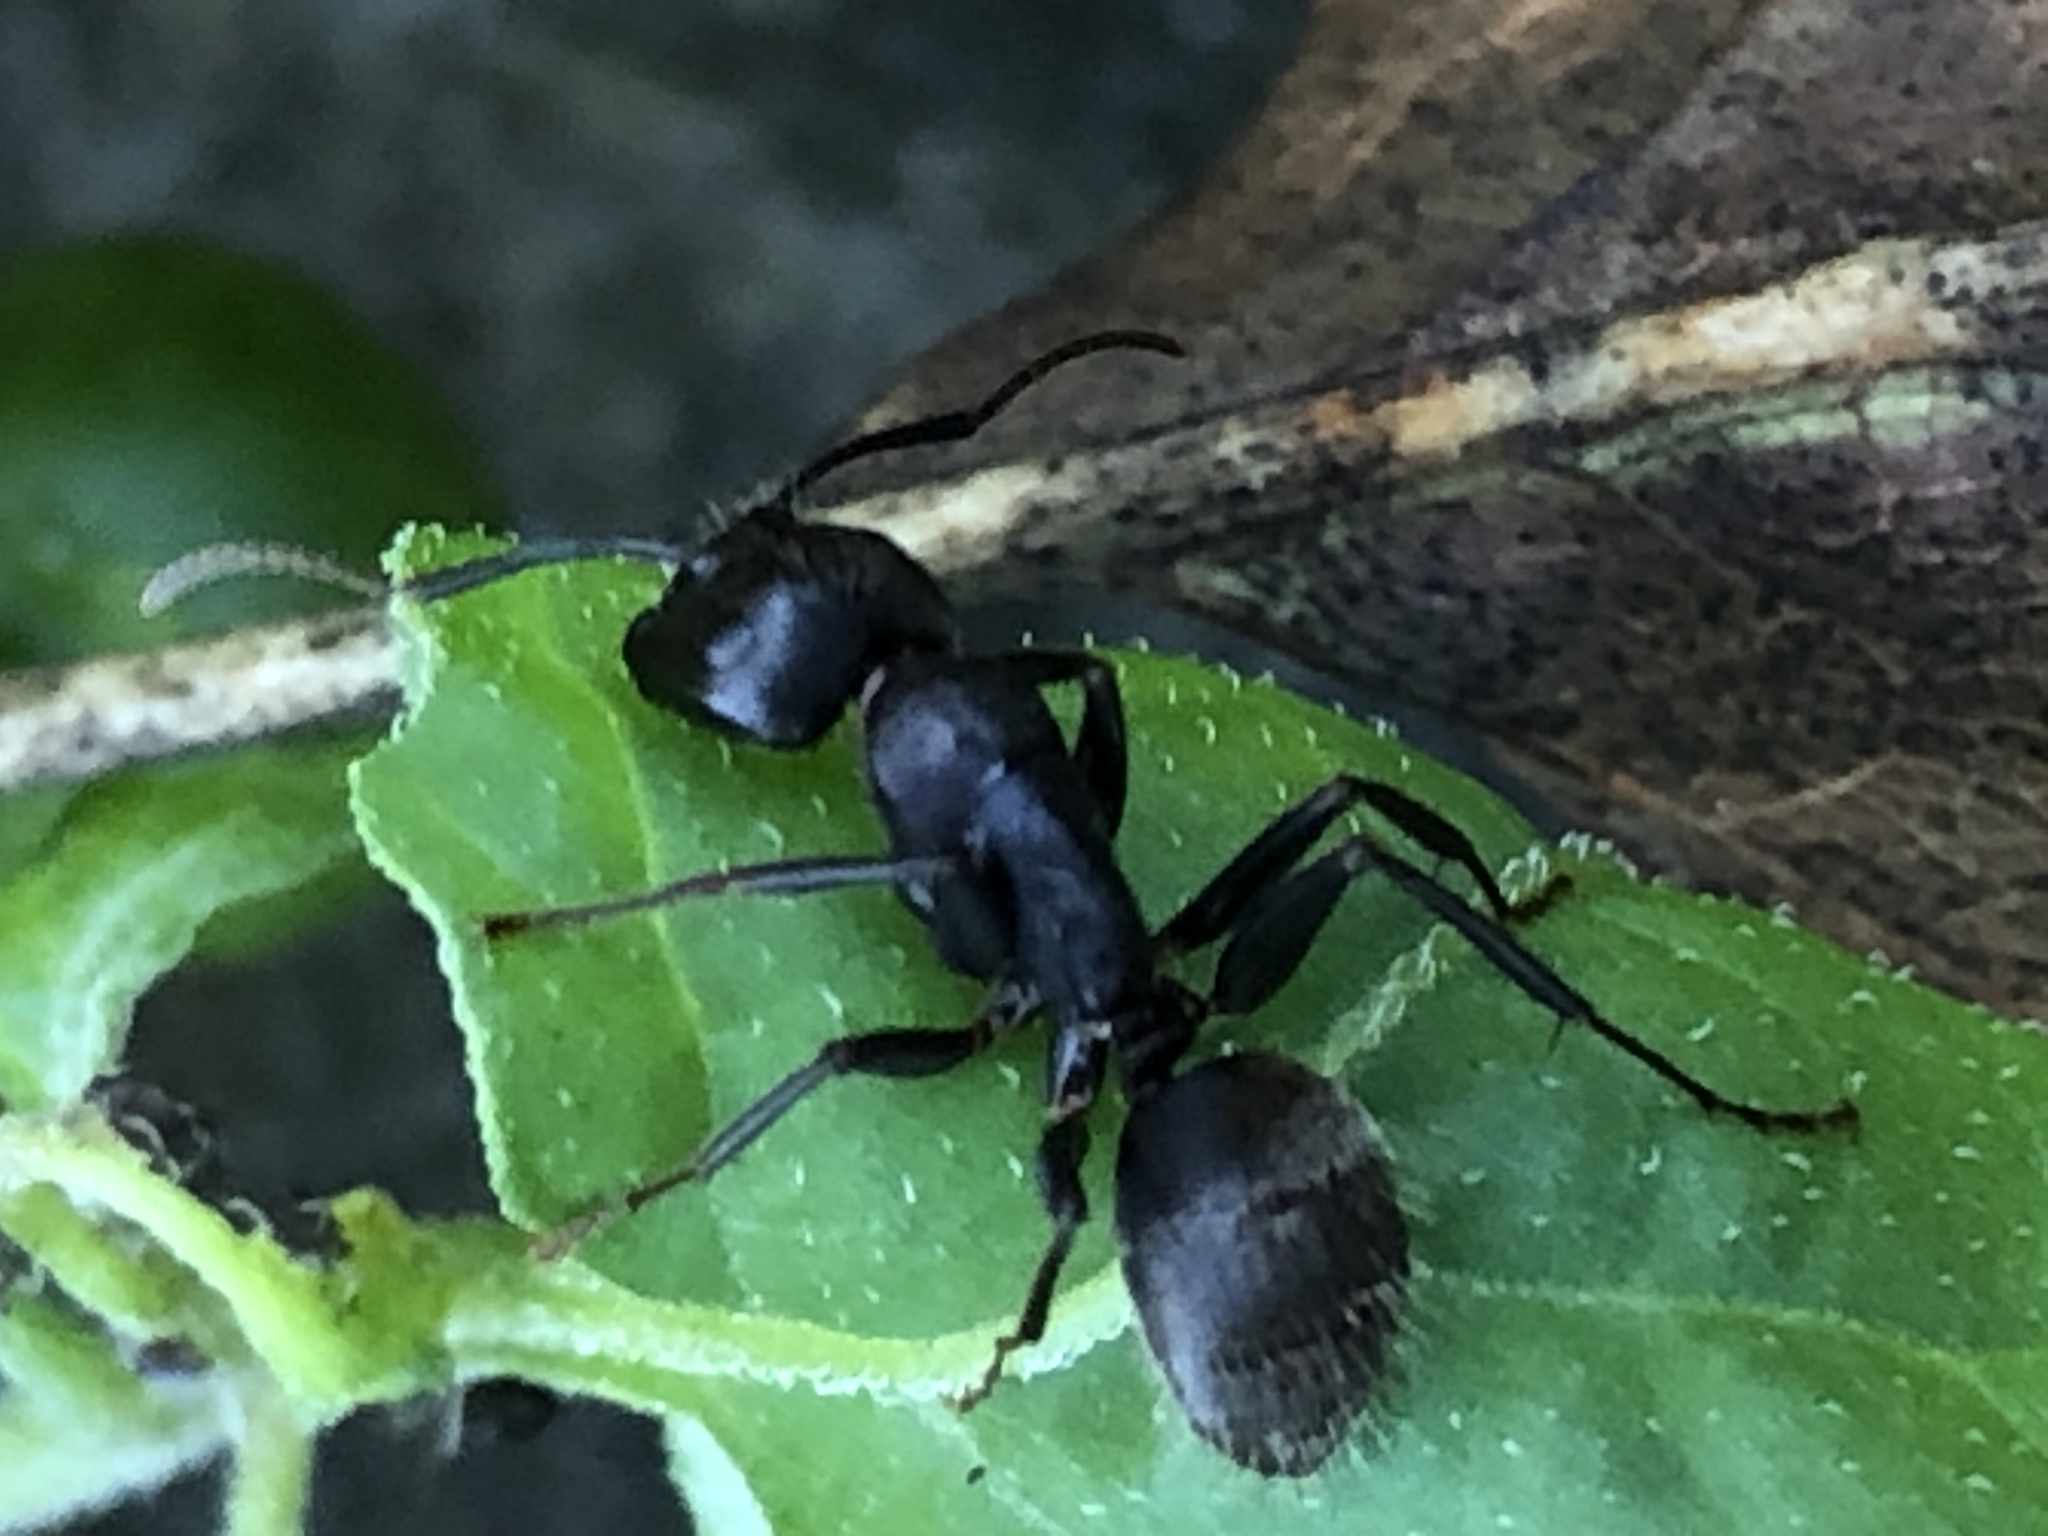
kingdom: Animalia
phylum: Arthropoda
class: Insecta
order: Hymenoptera
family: Formicidae
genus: Camponotus
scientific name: Camponotus pennsylvanicus
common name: Black carpenter ant
